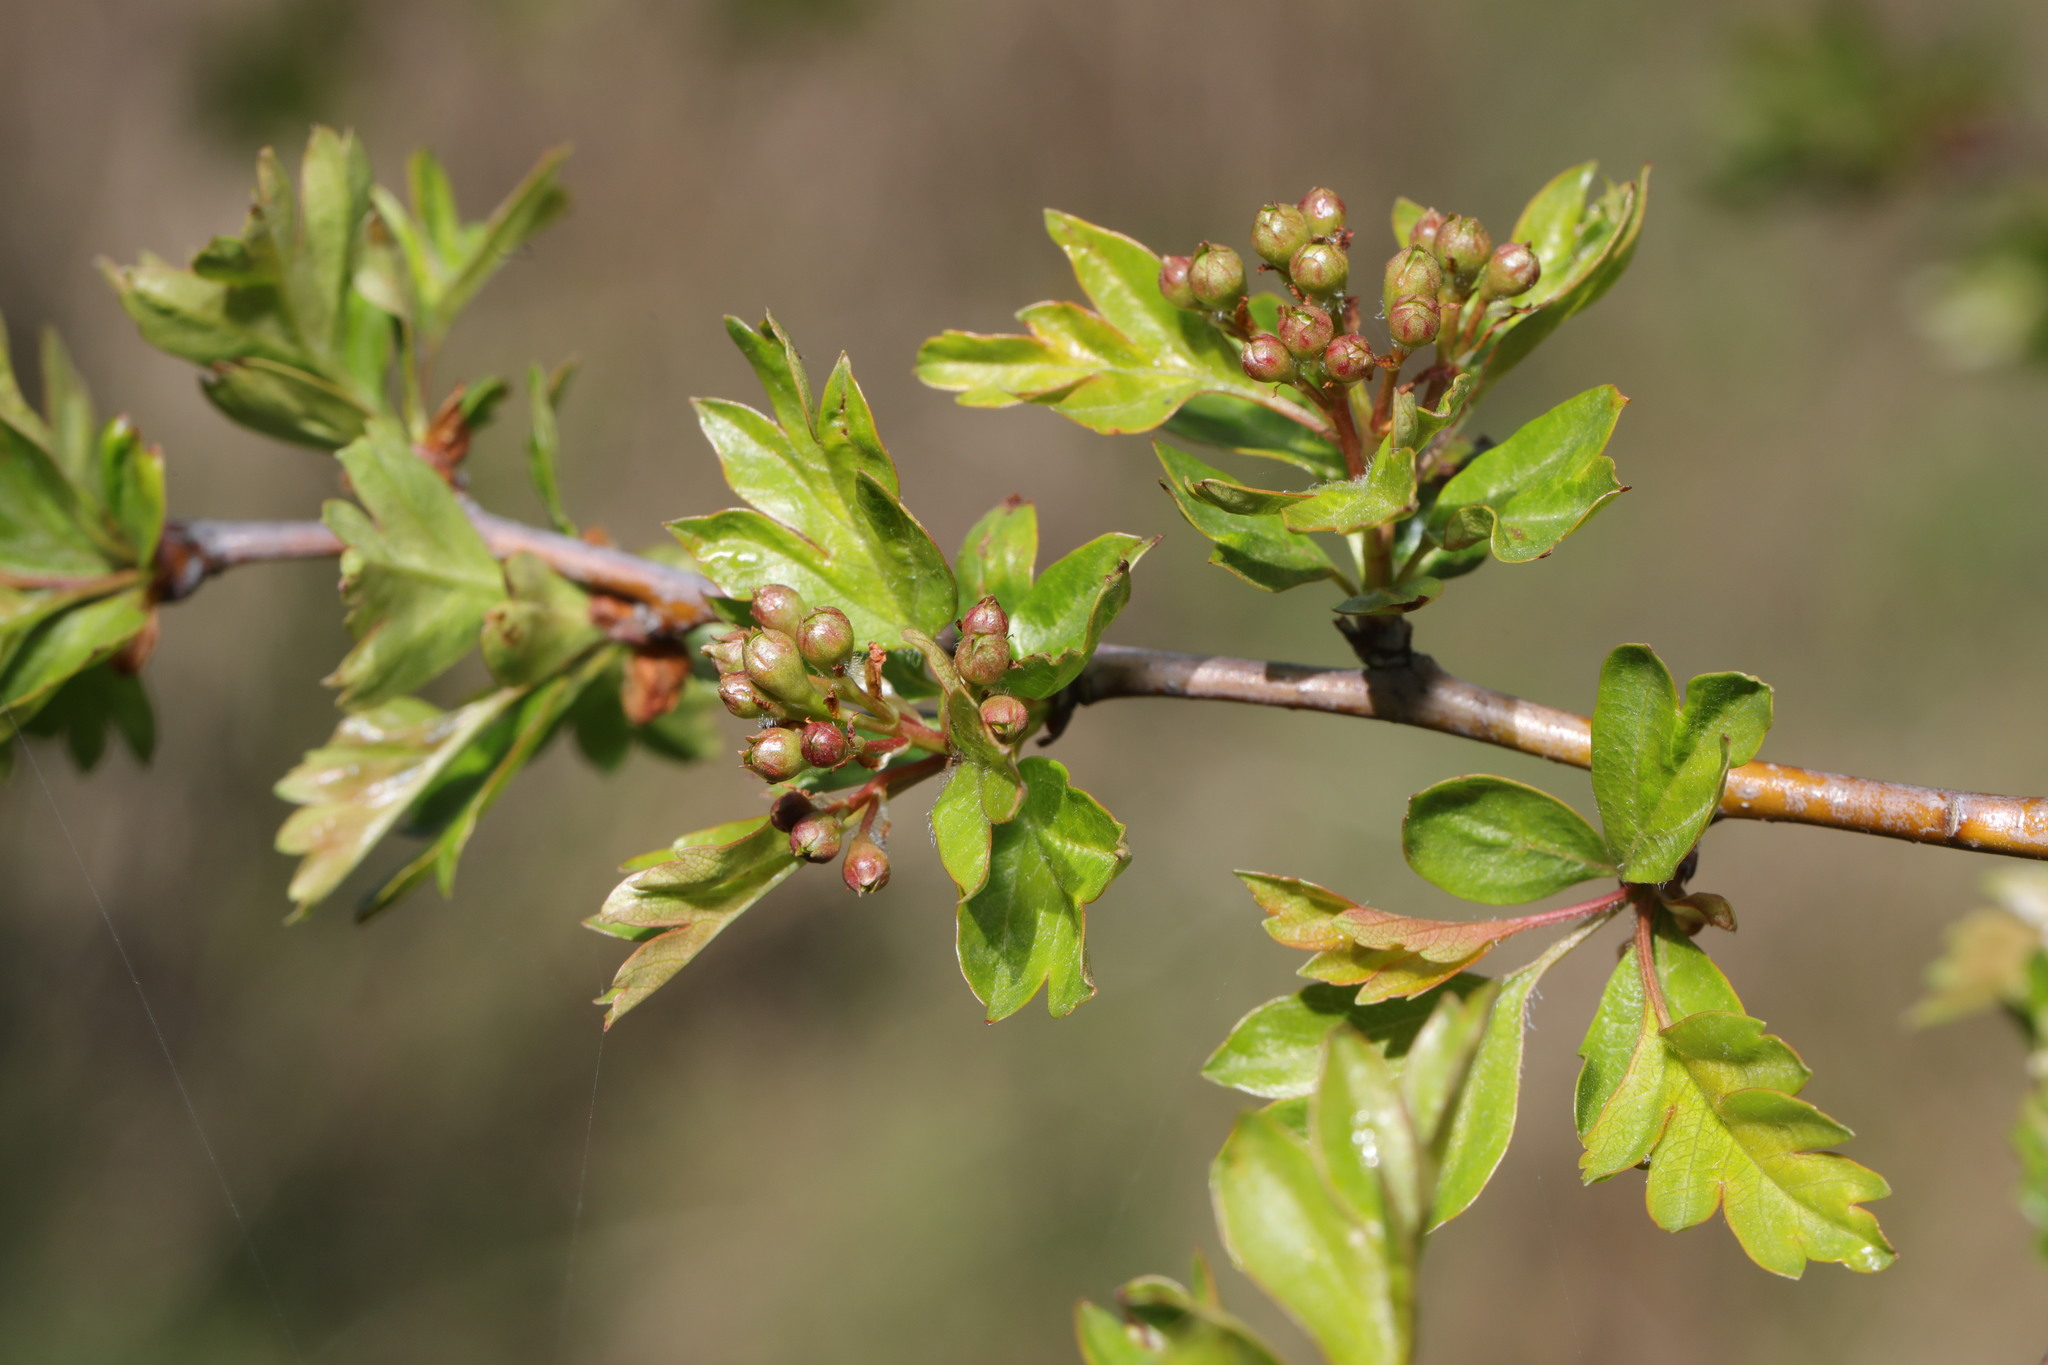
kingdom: Plantae
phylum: Tracheophyta
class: Magnoliopsida
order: Rosales
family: Rosaceae
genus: Crataegus
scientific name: Crataegus monogyna
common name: Hawthorn
